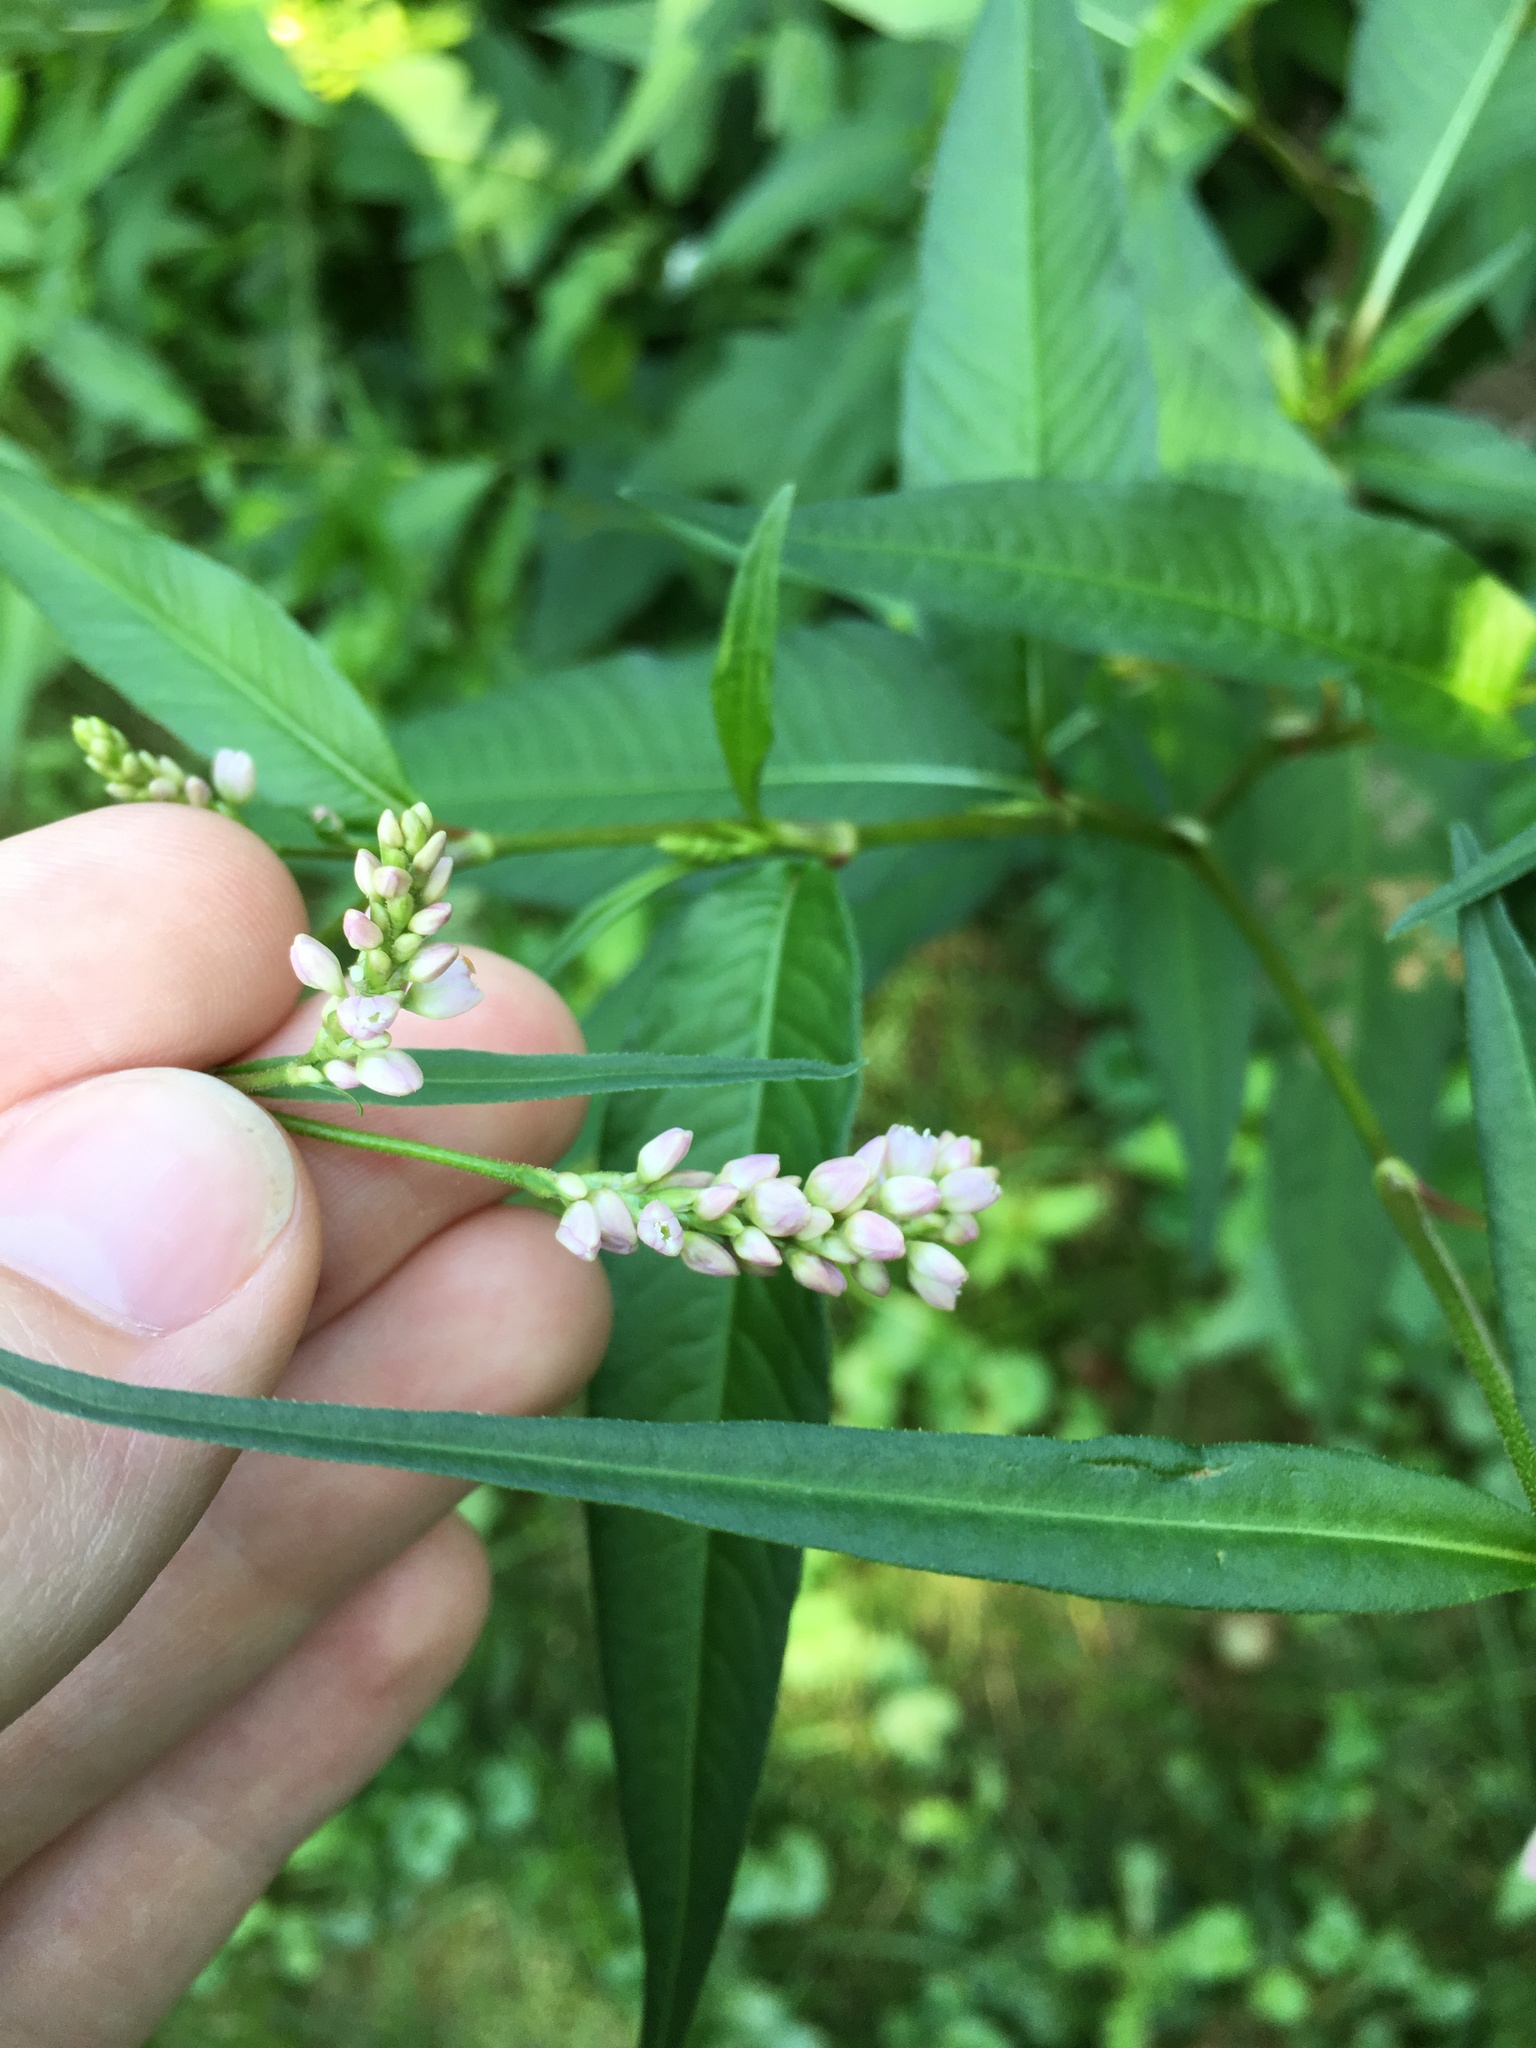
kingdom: Plantae
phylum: Tracheophyta
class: Magnoliopsida
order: Caryophyllales
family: Polygonaceae
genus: Persicaria
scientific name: Persicaria pensylvanica
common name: Pinkweed
